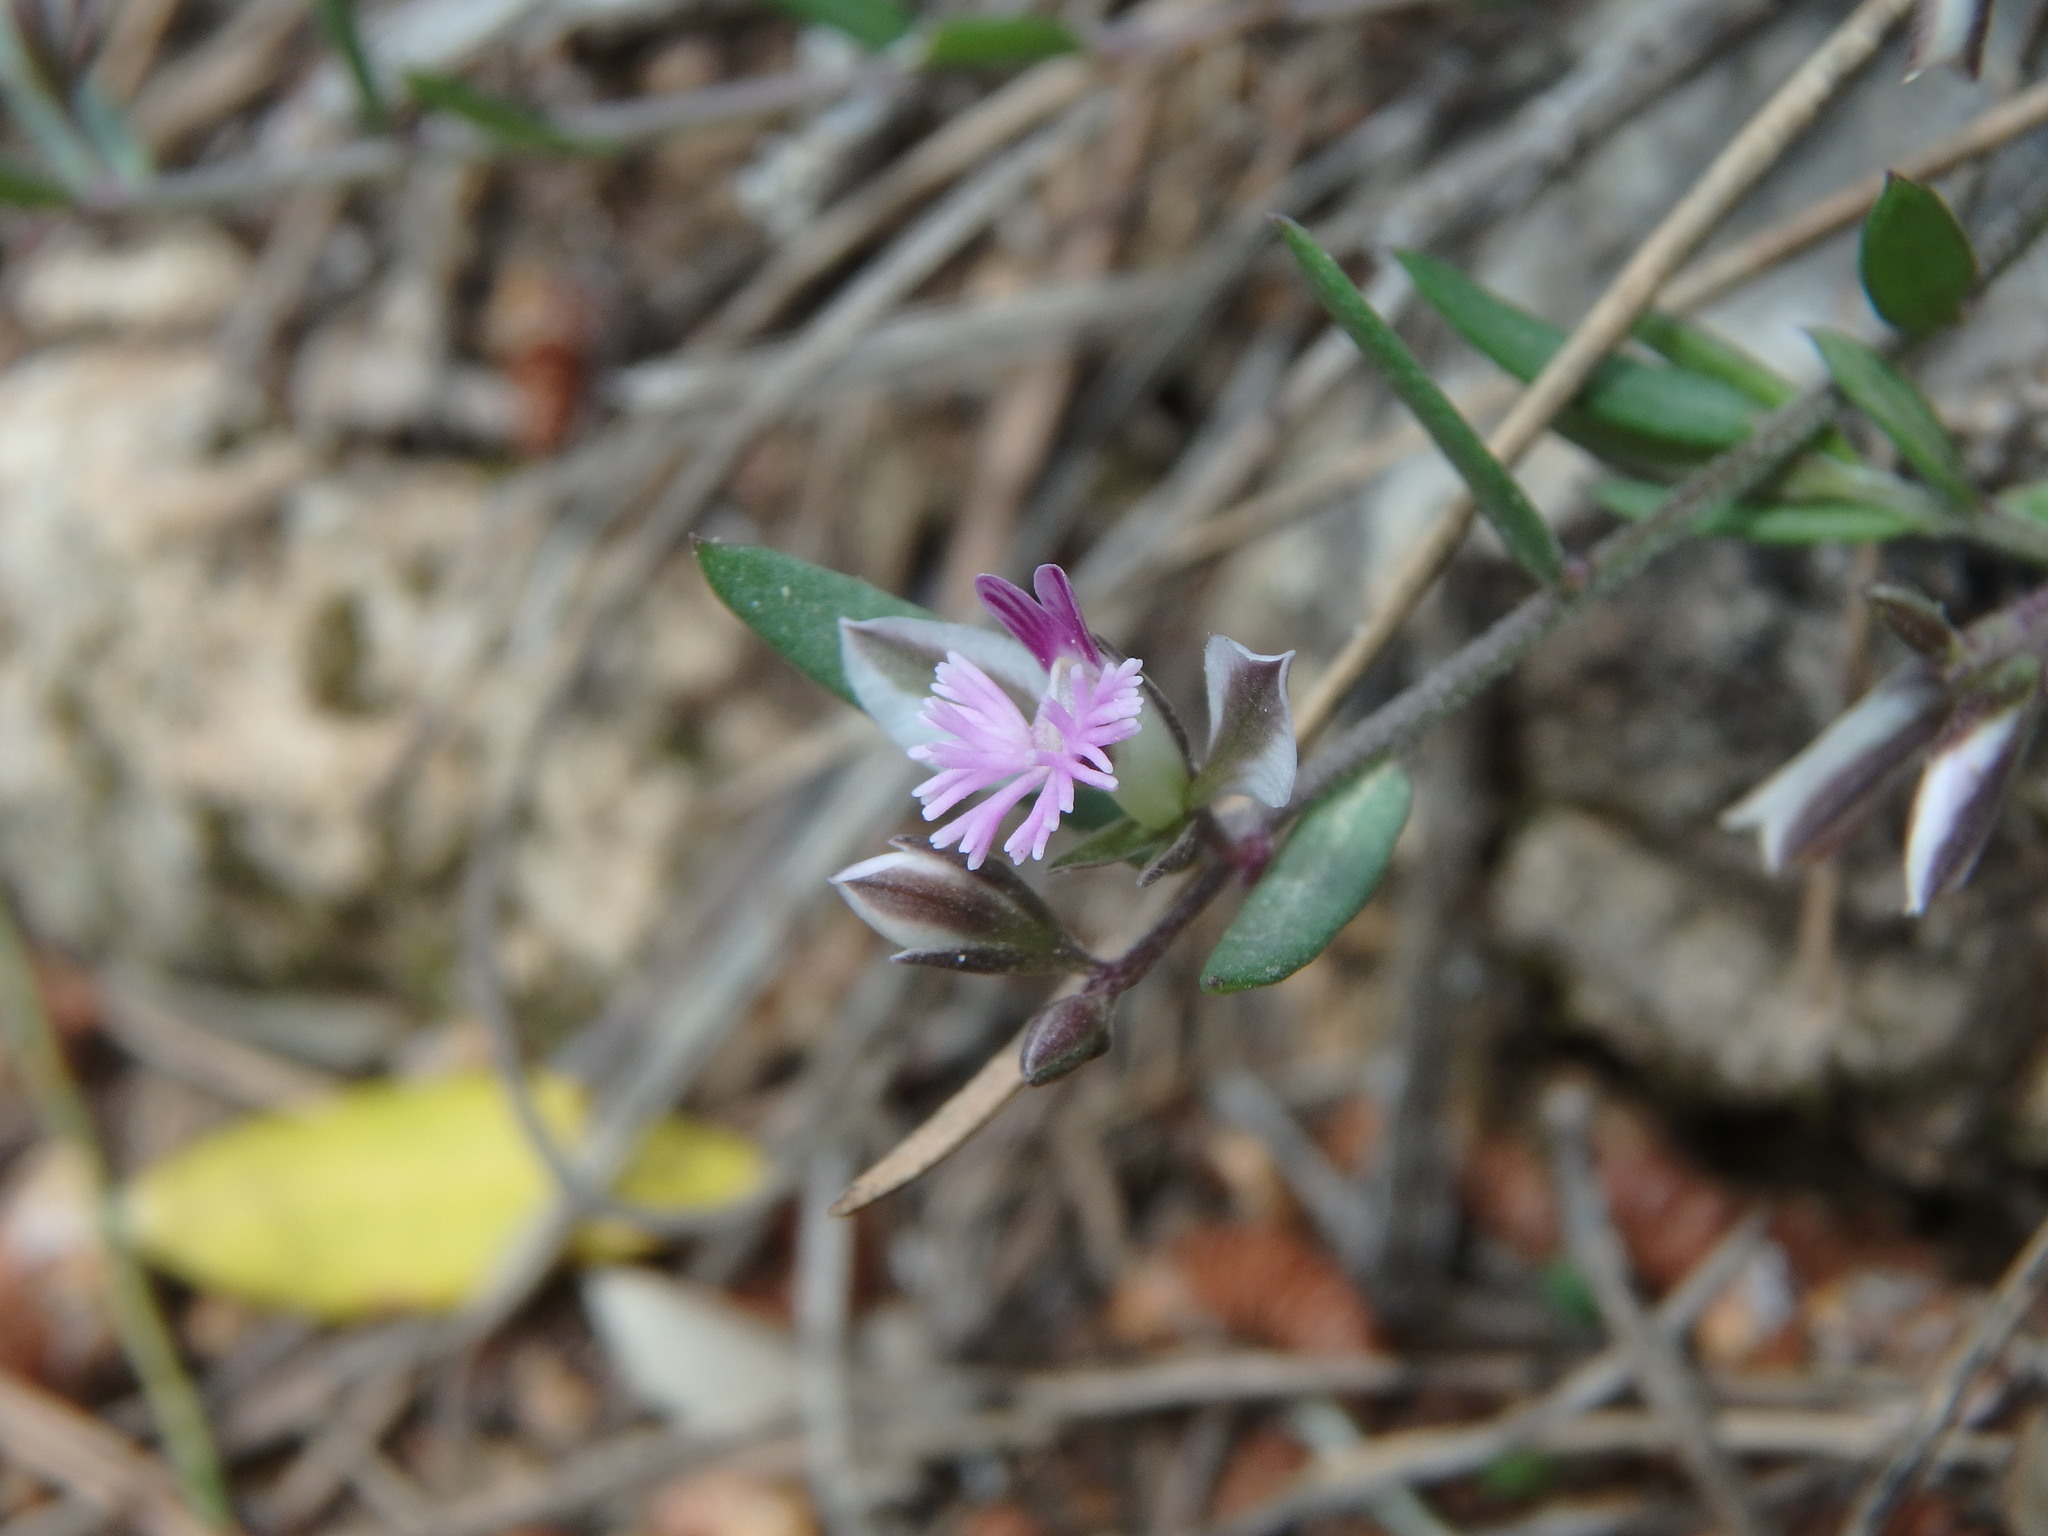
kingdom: Plantae
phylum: Tracheophyta
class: Magnoliopsida
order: Fabales
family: Polygalaceae
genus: Polygala
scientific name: Polygala rupestris
